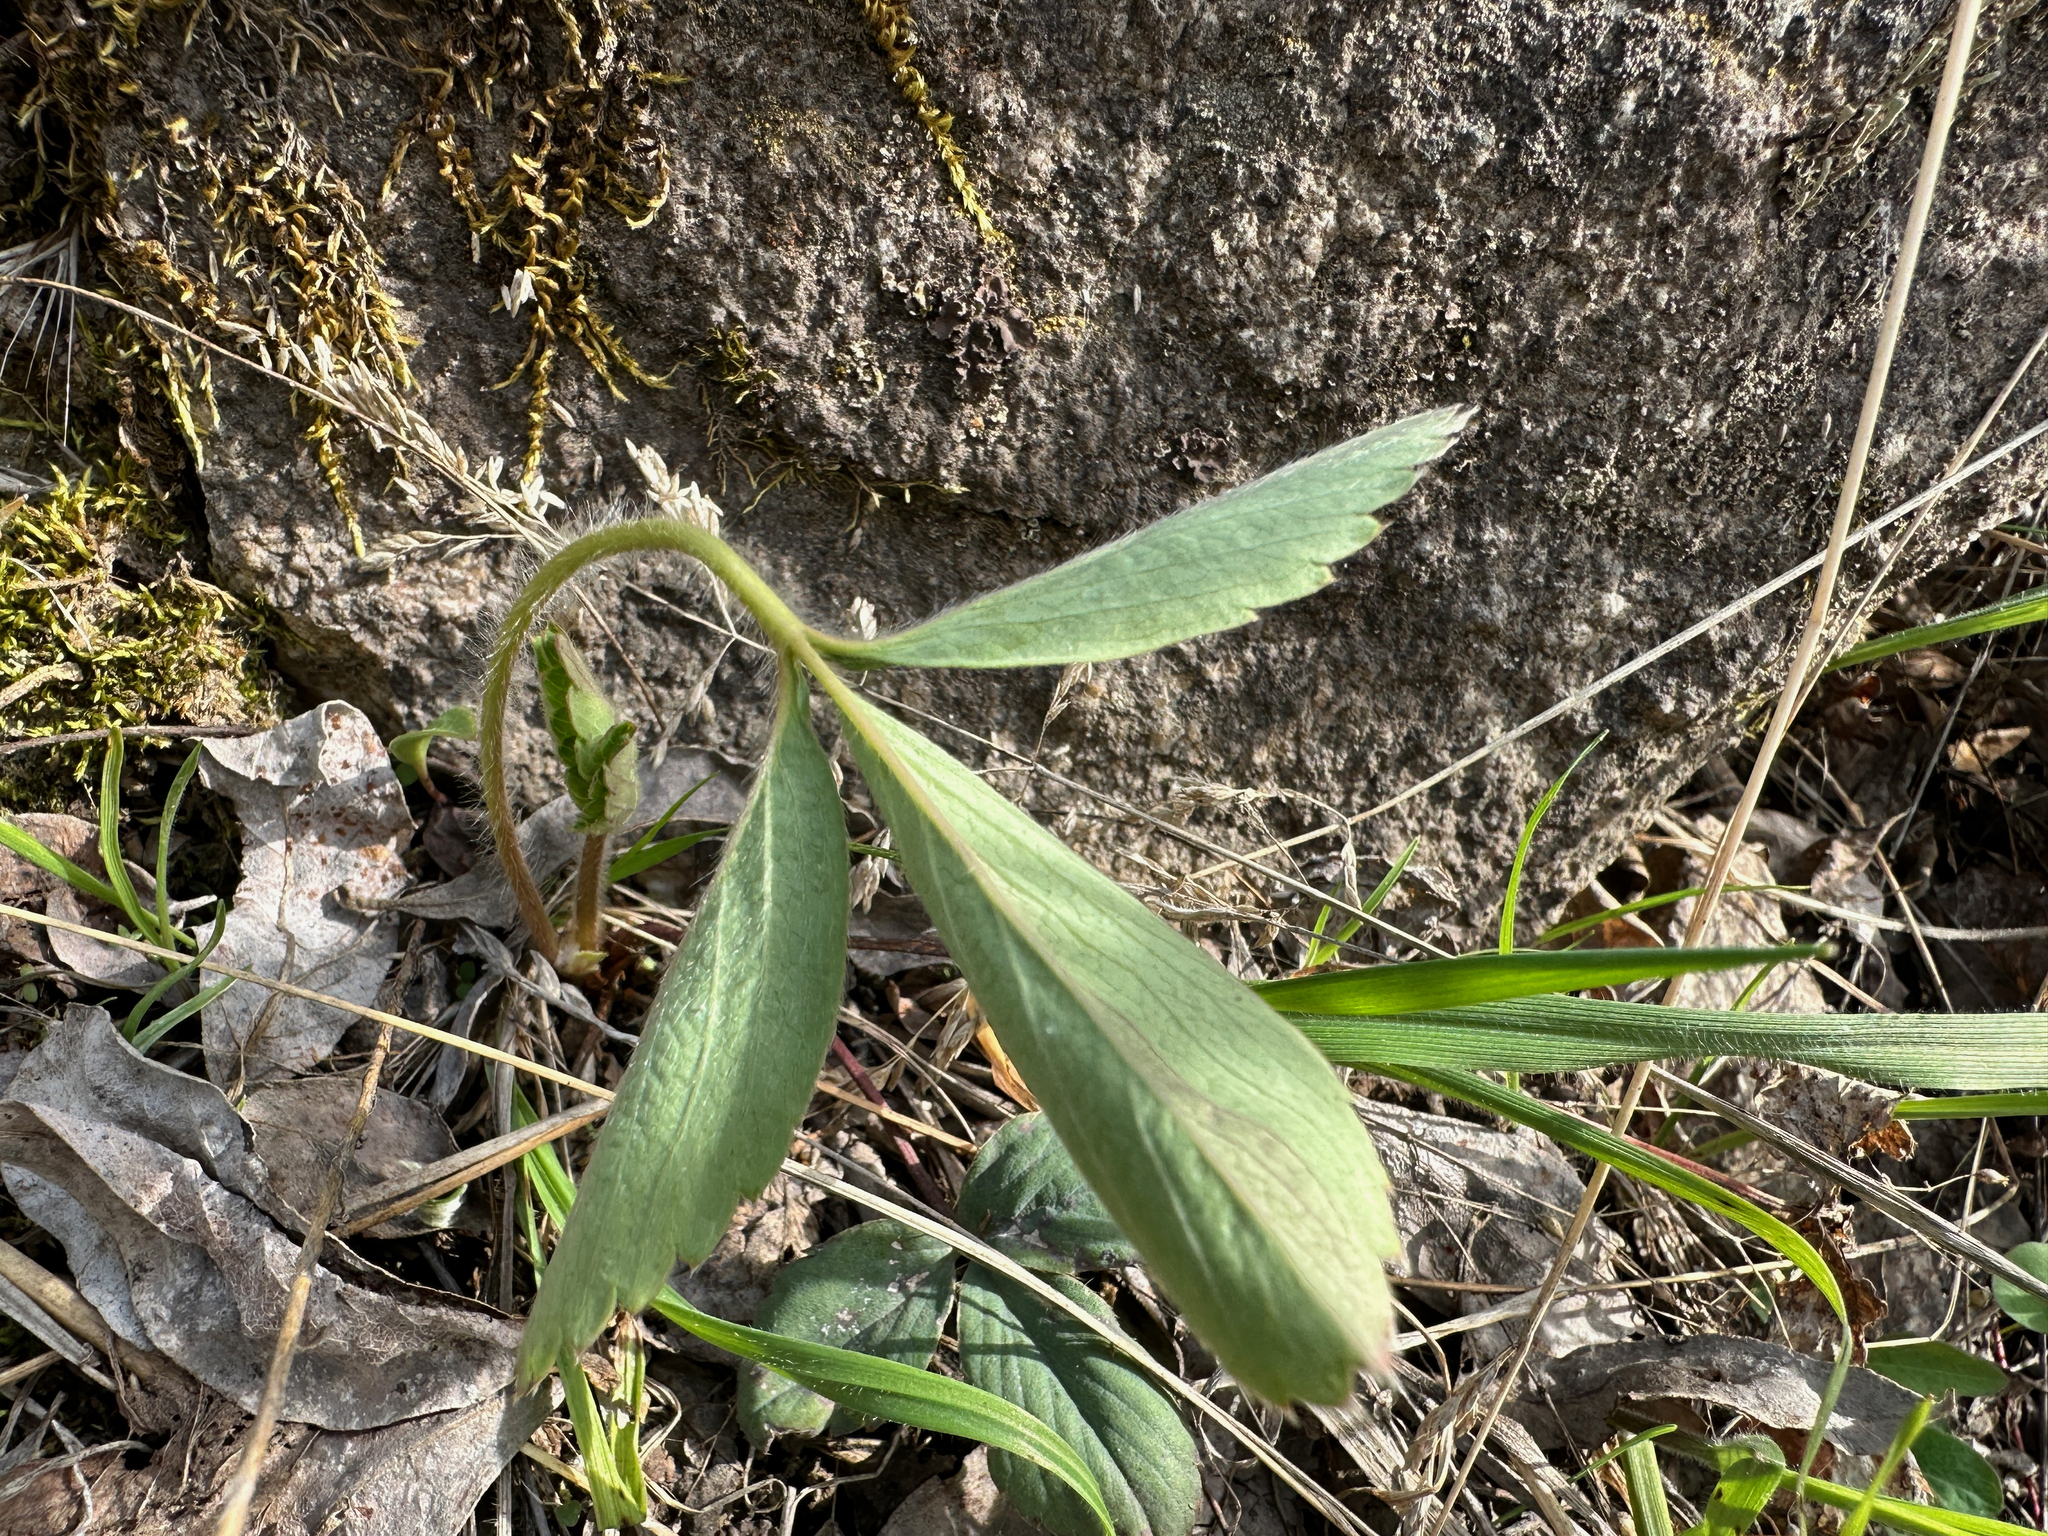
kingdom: Plantae
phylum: Tracheophyta
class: Magnoliopsida
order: Rosales
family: Rosaceae
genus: Fragaria
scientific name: Fragaria virginiana
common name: Thickleaved wild strawberry
